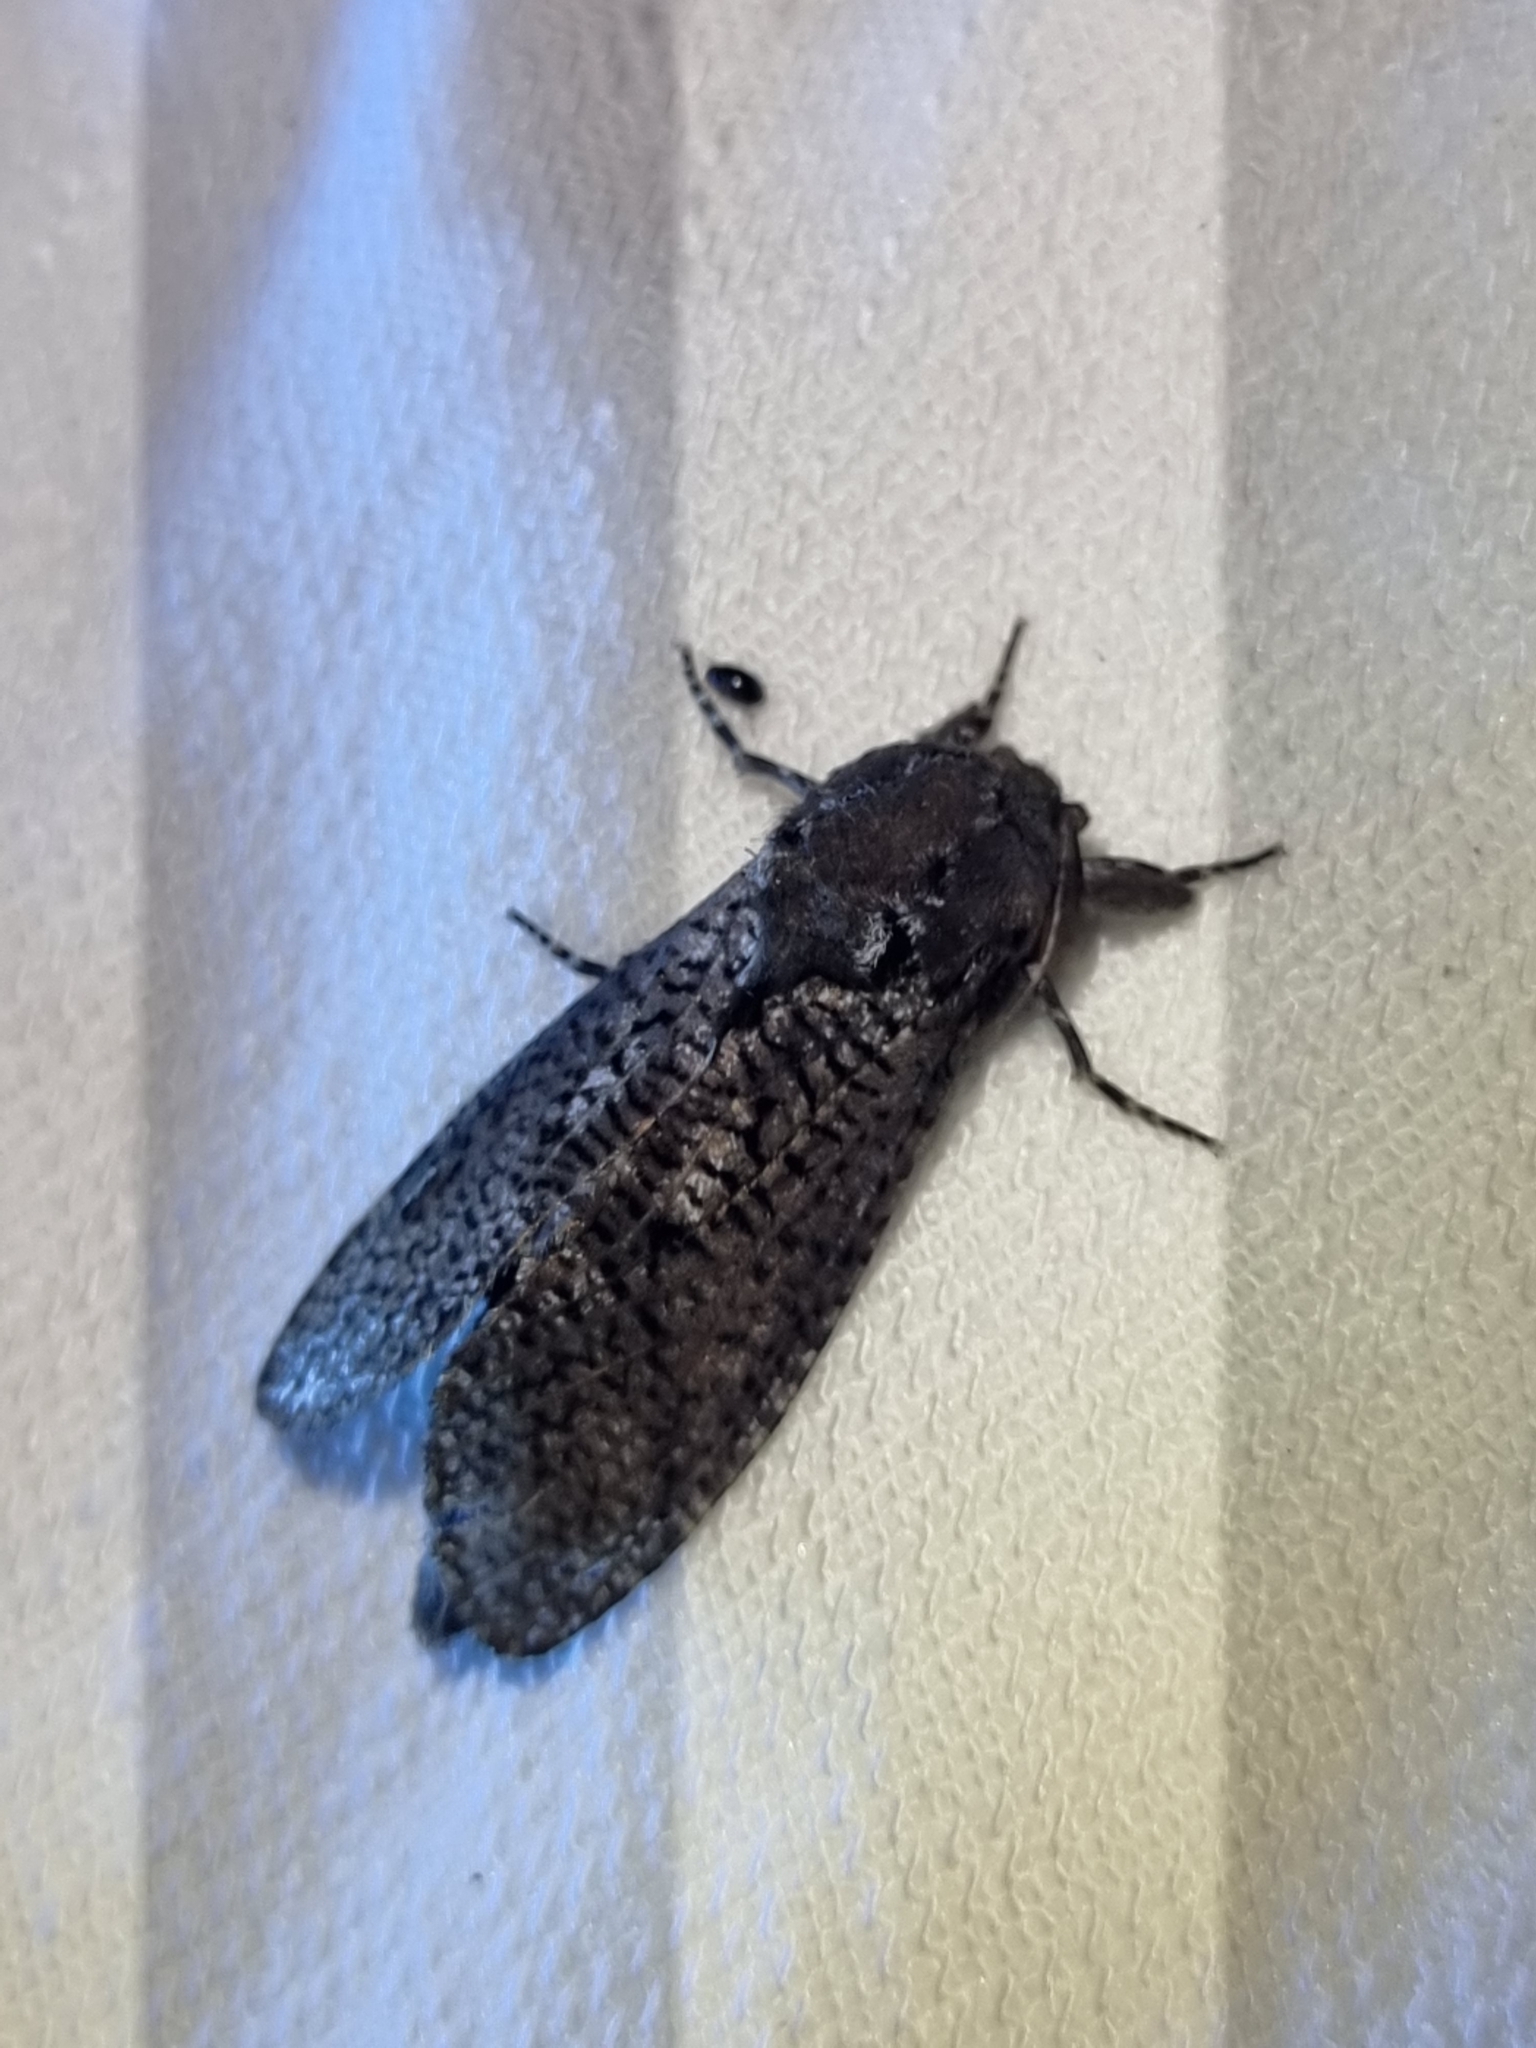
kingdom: Animalia
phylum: Arthropoda
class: Insecta
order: Lepidoptera
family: Cossidae
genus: Endoxyla
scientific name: Endoxyla dictyoschema
